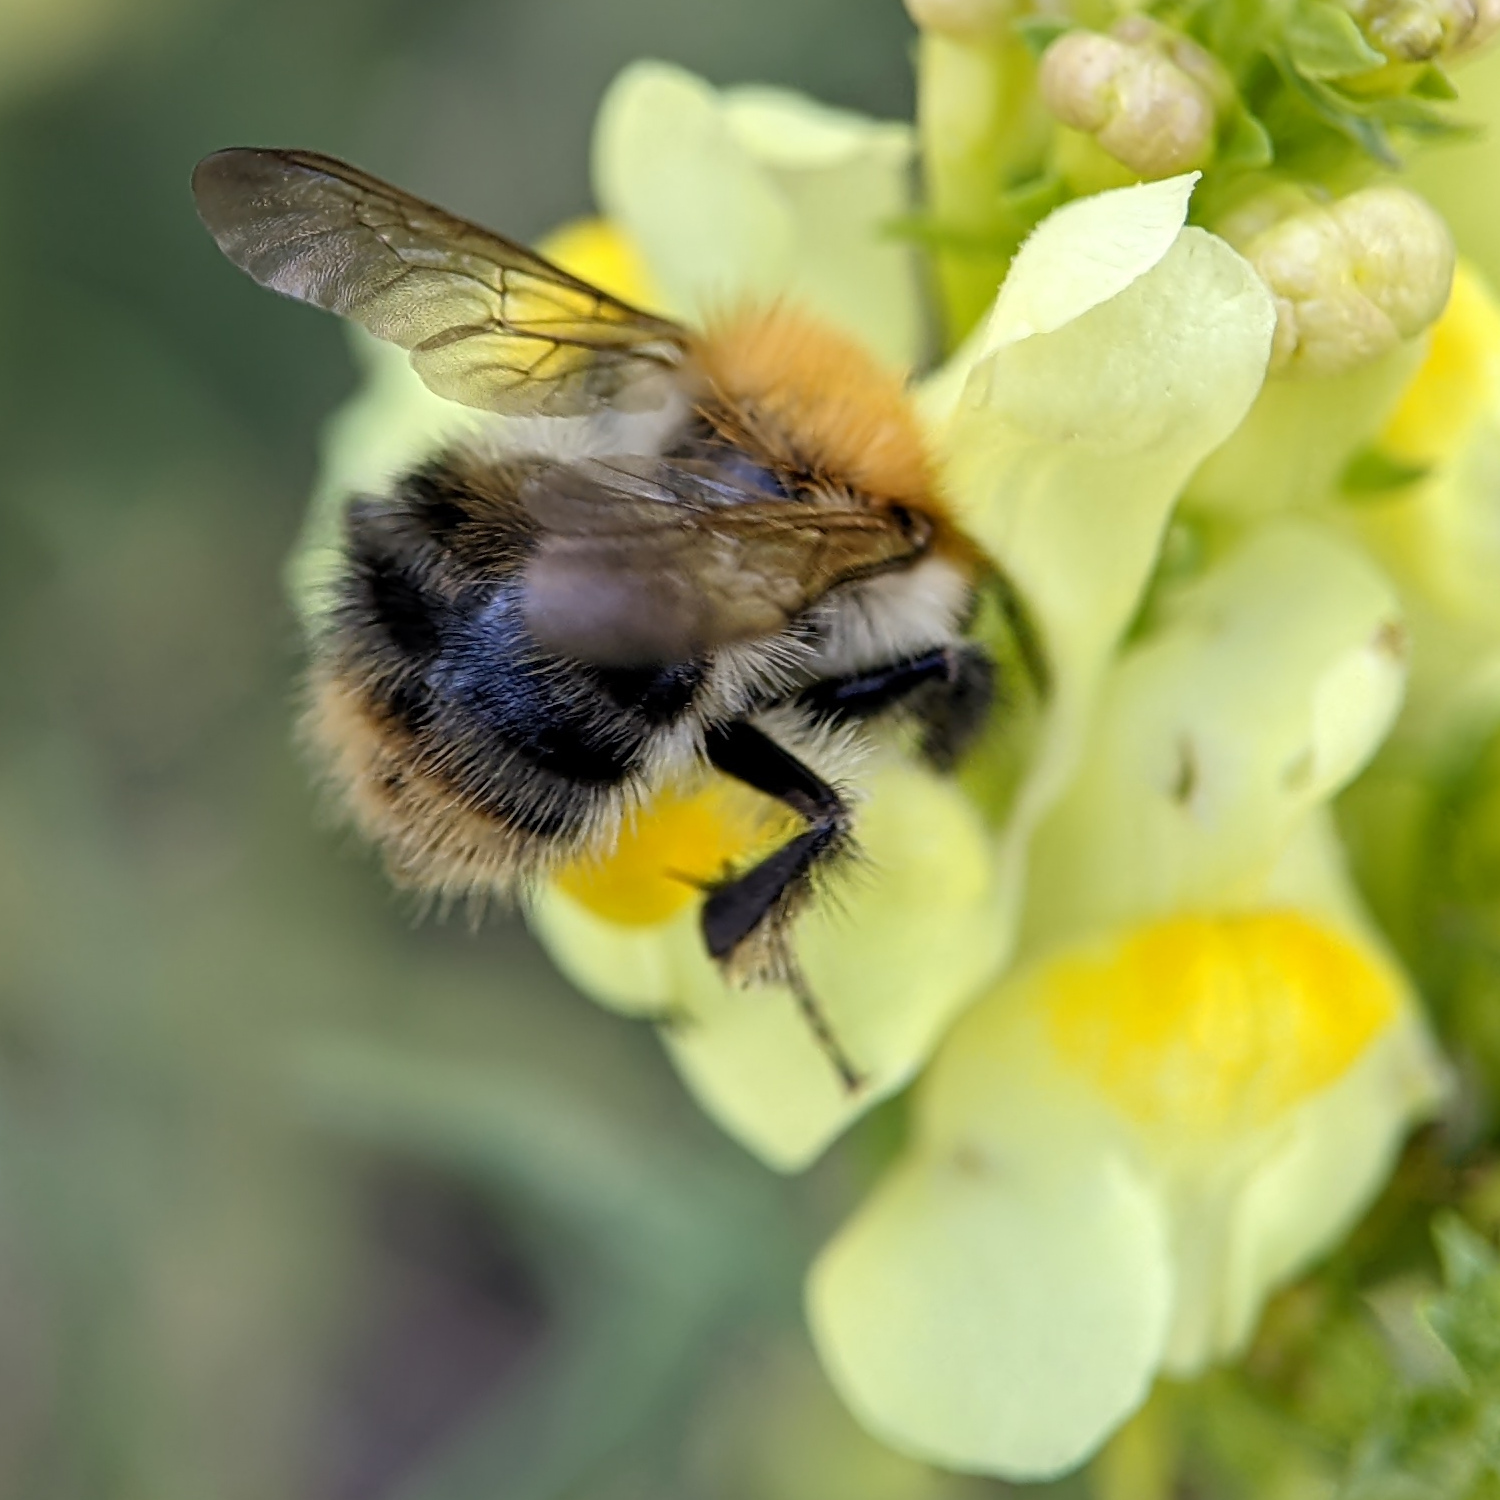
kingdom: Animalia
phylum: Arthropoda
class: Insecta
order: Hymenoptera
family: Apidae
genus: Bombus
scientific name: Bombus pascuorum
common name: Common carder bee
